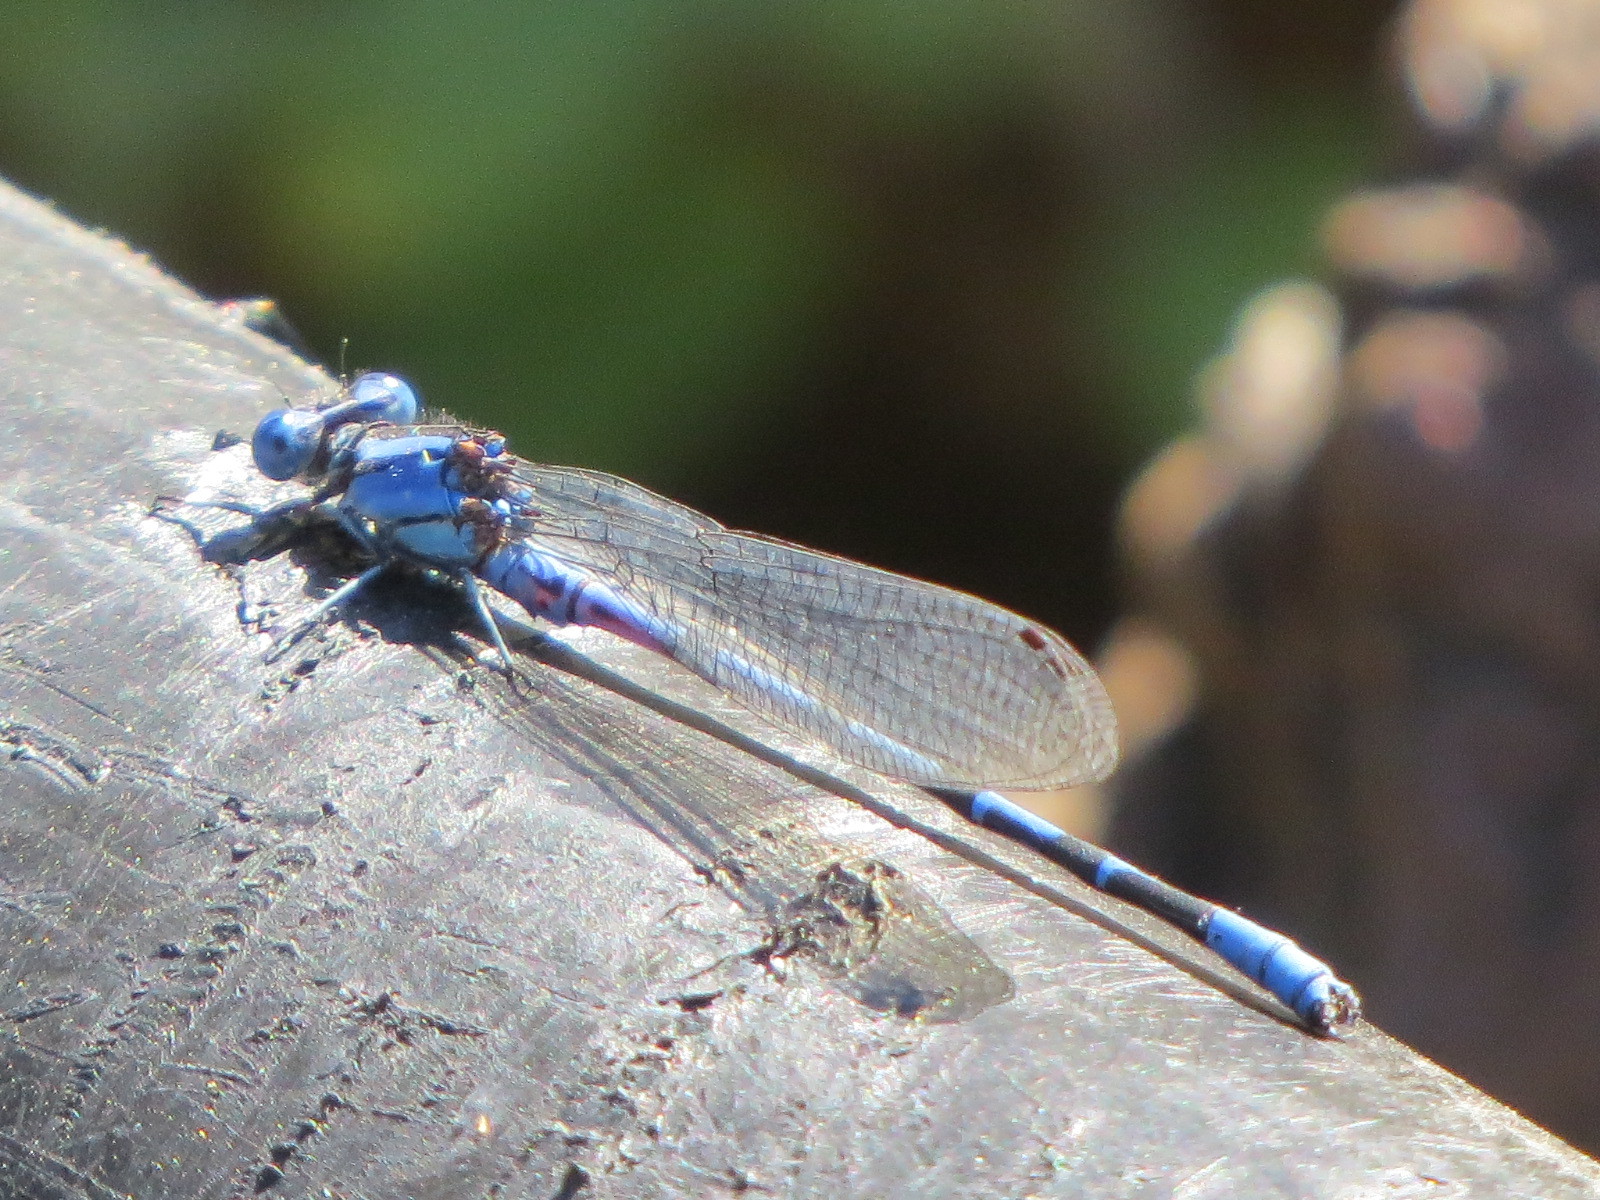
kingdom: Animalia
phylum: Arthropoda
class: Insecta
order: Odonata
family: Coenagrionidae
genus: Argia
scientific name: Argia vivida
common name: Vivid dancer
